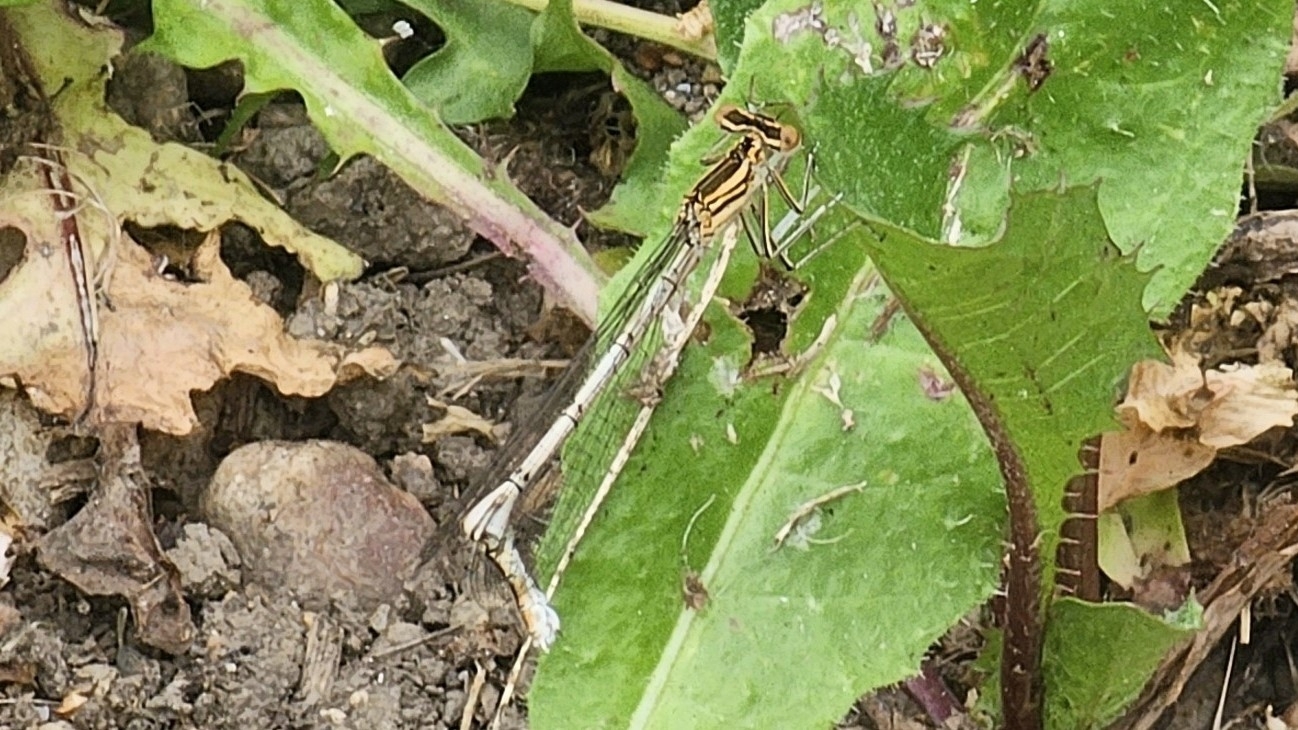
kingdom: Animalia
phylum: Arthropoda
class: Insecta
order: Odonata
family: Platycnemididae
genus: Platycnemis
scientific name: Platycnemis pennipes
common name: White-legged damselfly
